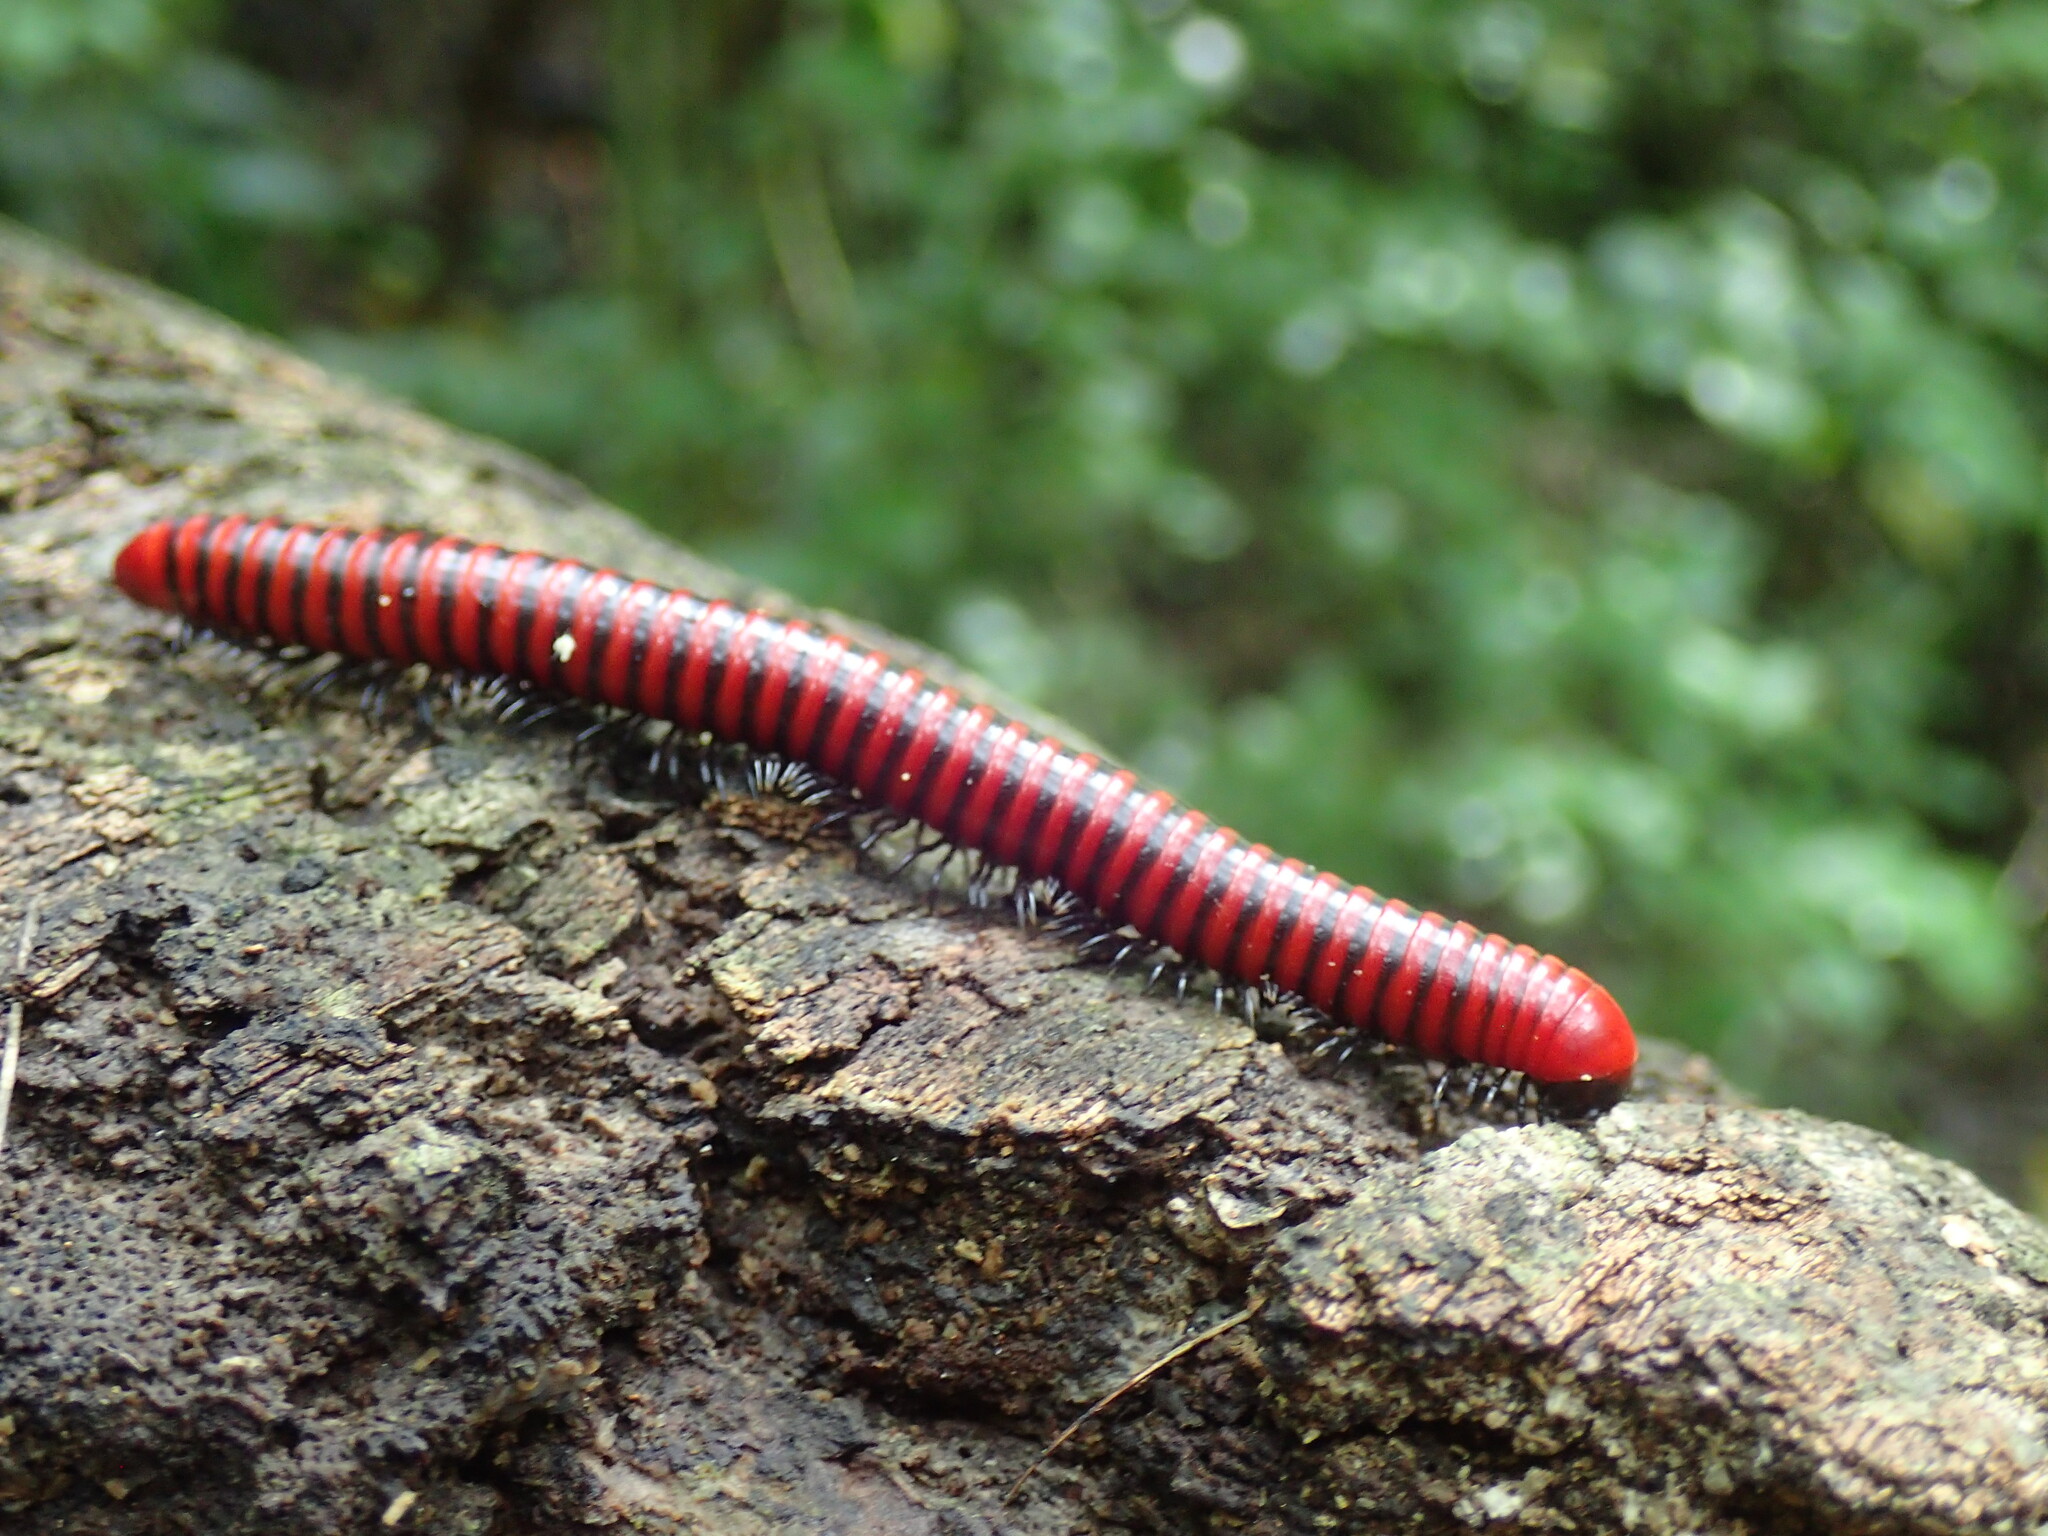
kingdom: Animalia
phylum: Arthropoda
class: Diplopoda
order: Spirobolida
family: Pachybolidae
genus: Centrobolus
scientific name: Centrobolus anulatus
